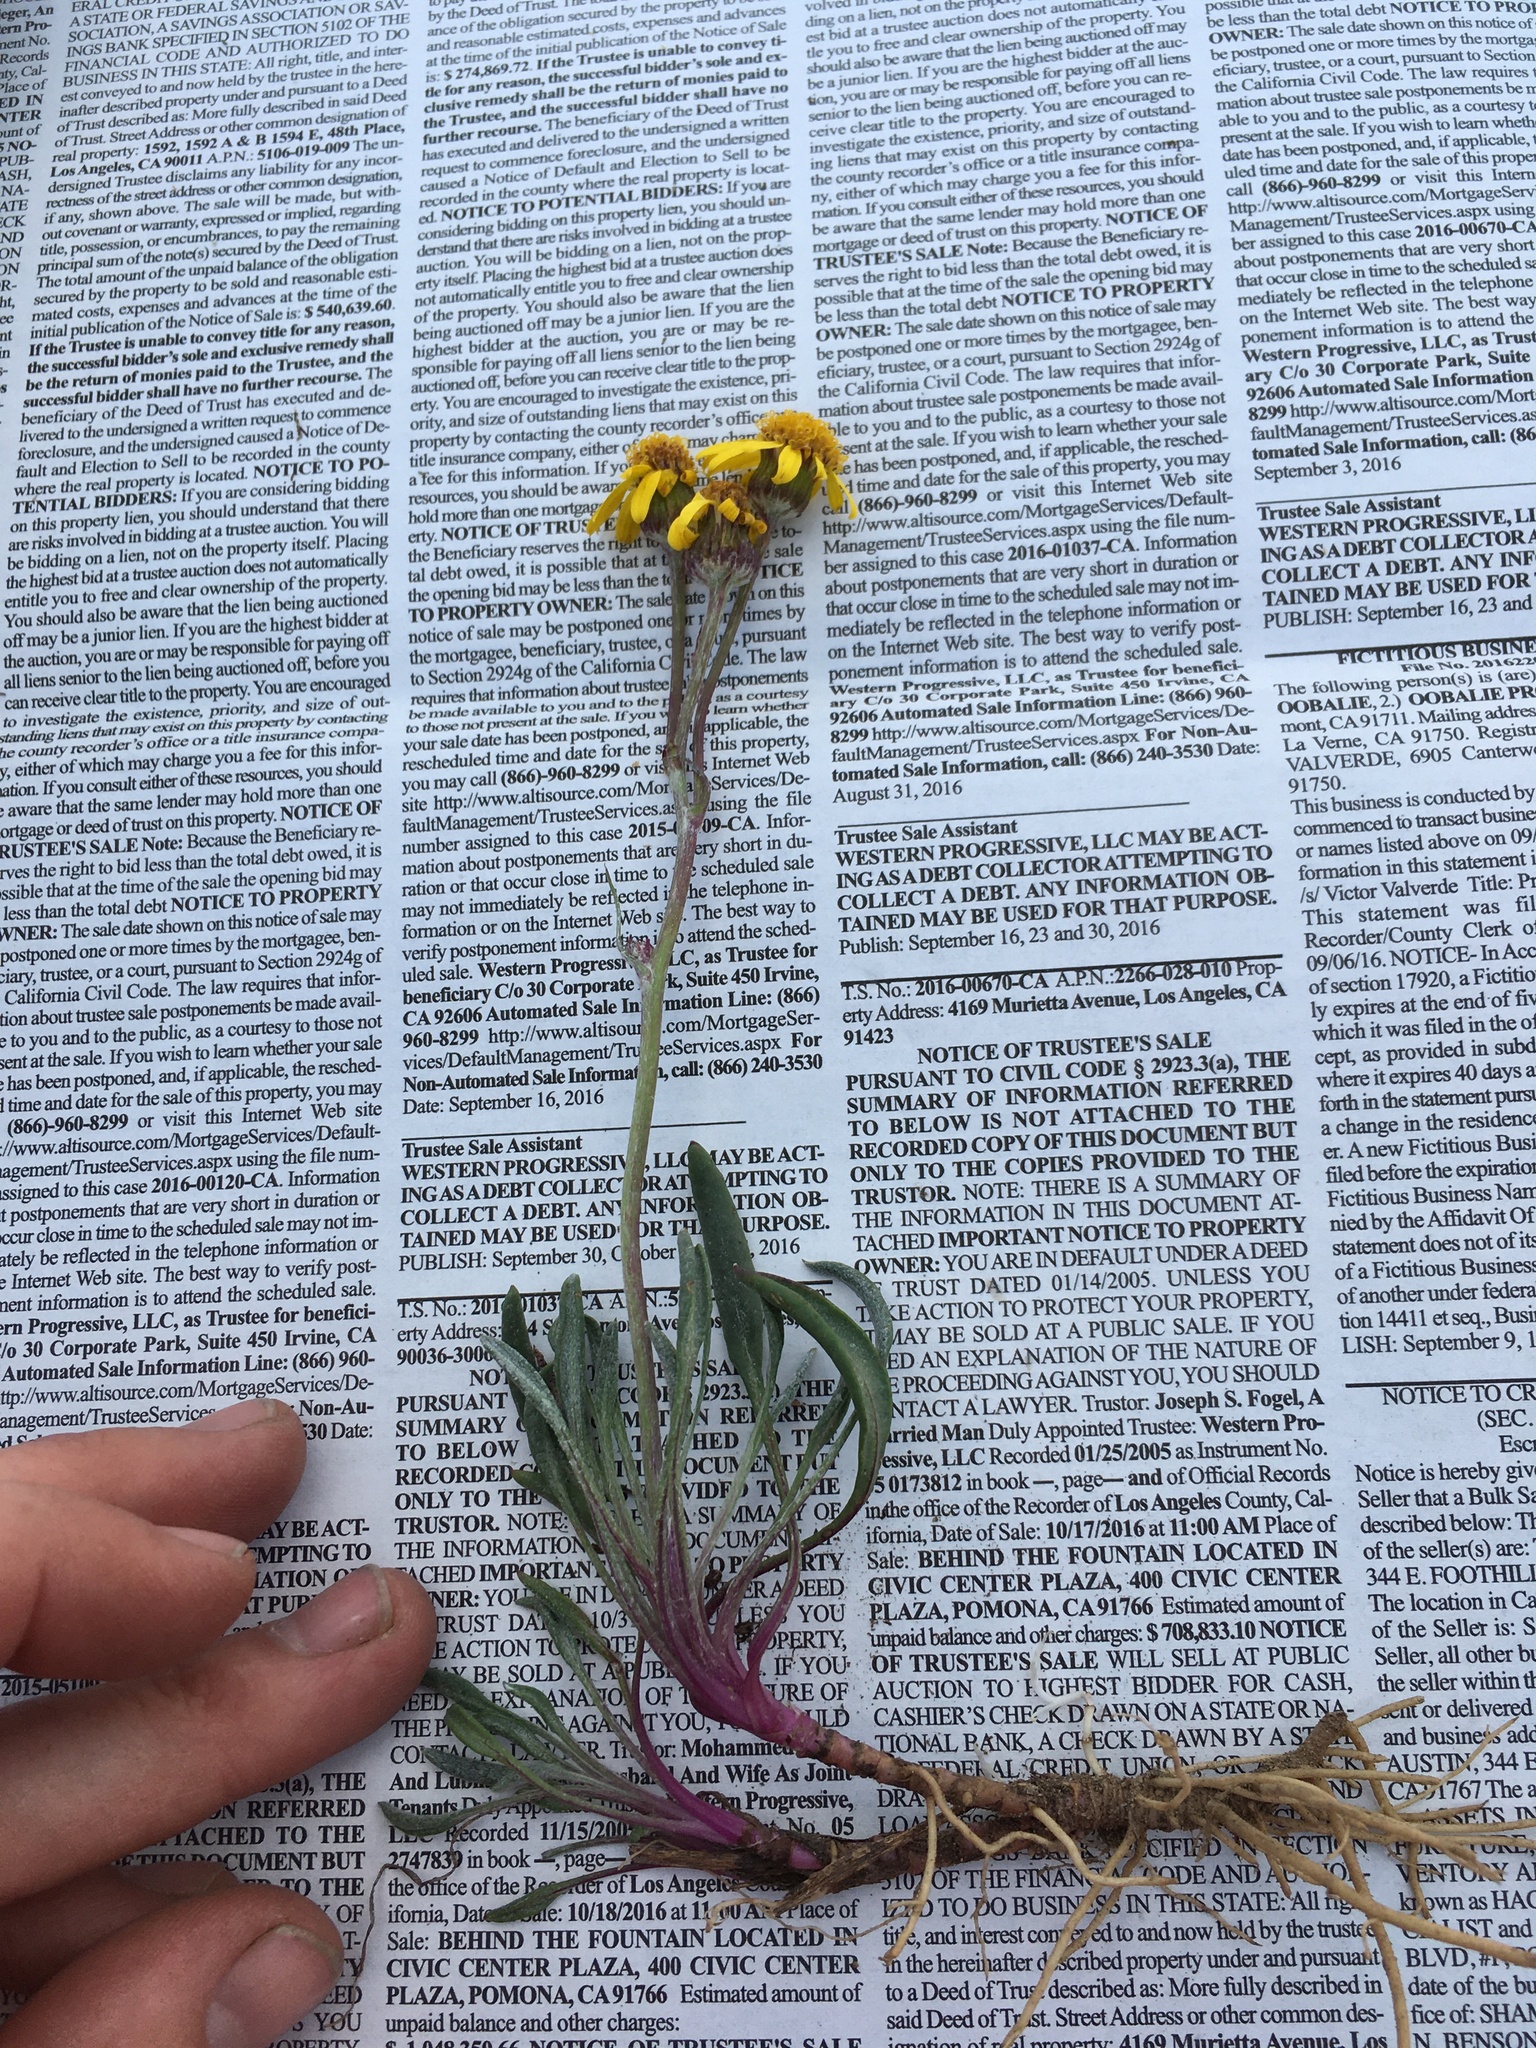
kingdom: Plantae
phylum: Tracheophyta
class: Magnoliopsida
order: Asterales
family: Asteraceae
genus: Packera
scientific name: Packera werneriifolia
